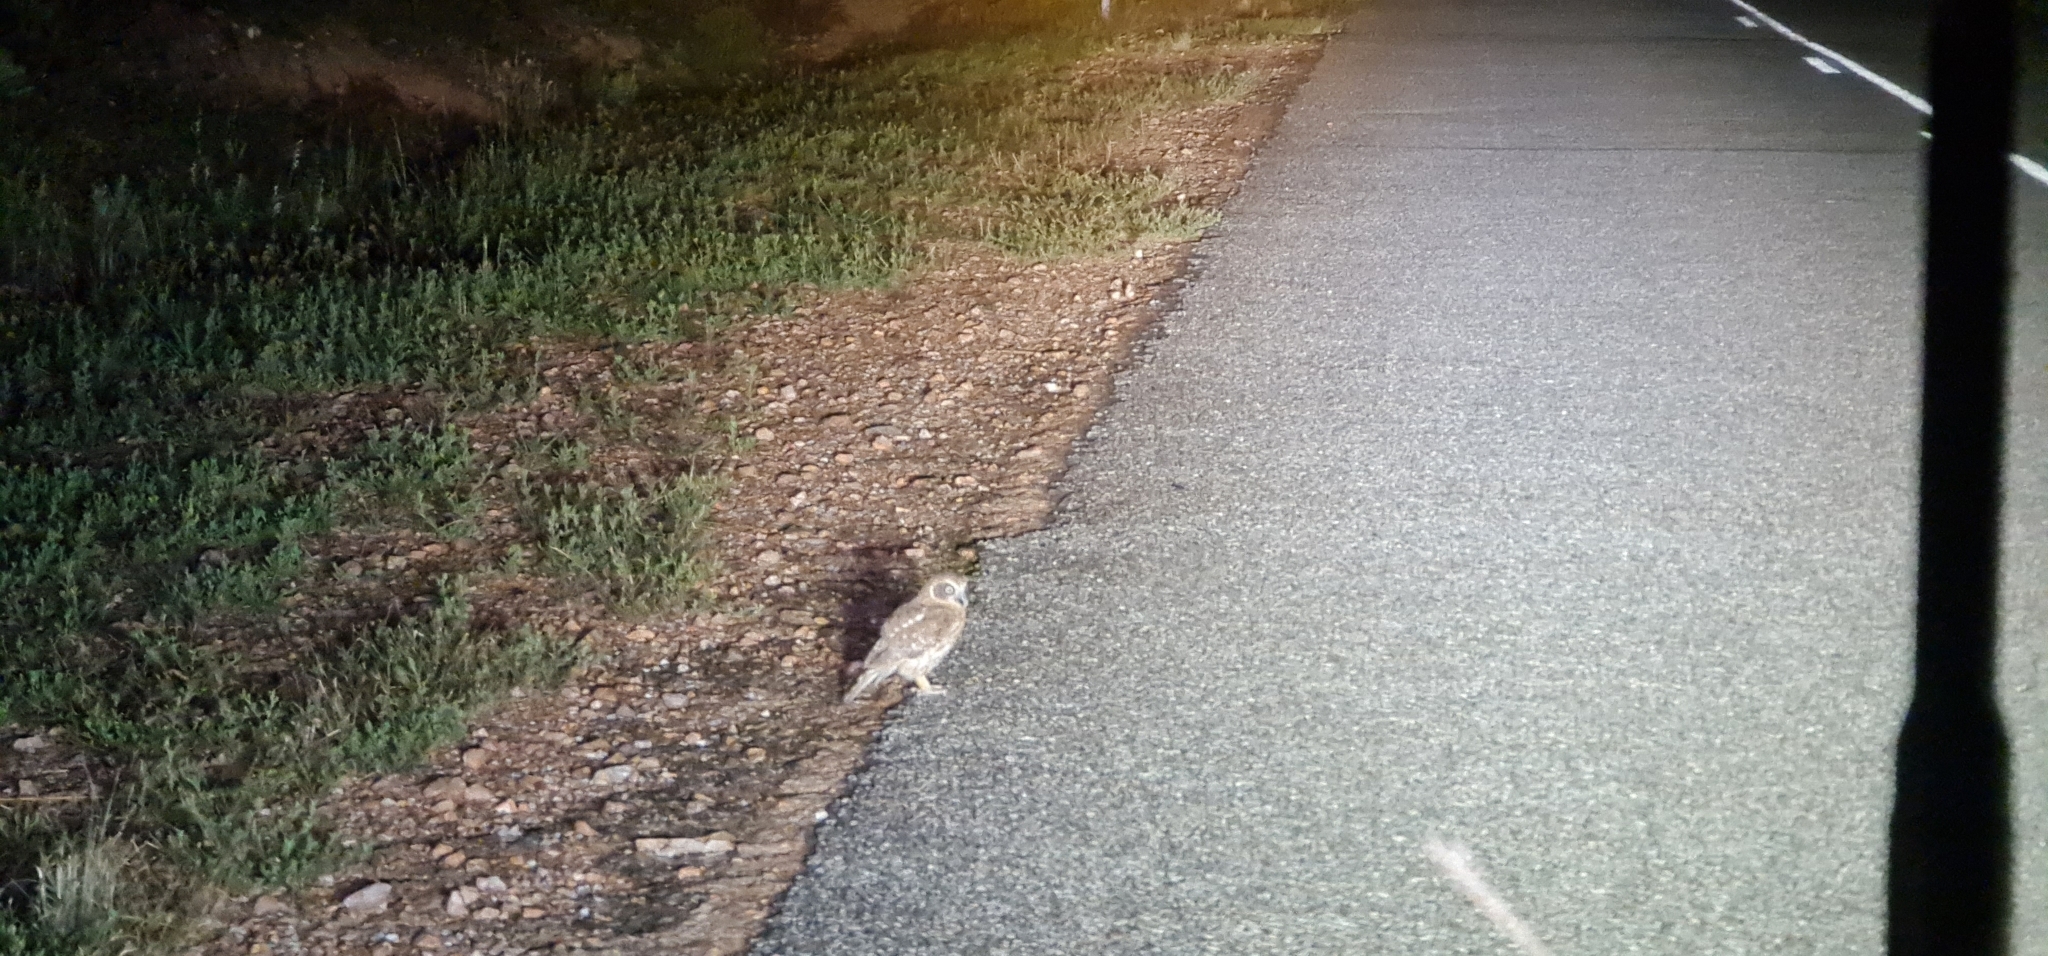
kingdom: Animalia
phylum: Chordata
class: Aves
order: Strigiformes
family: Strigidae
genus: Ninox
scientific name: Ninox boobook
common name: Southern boobook
